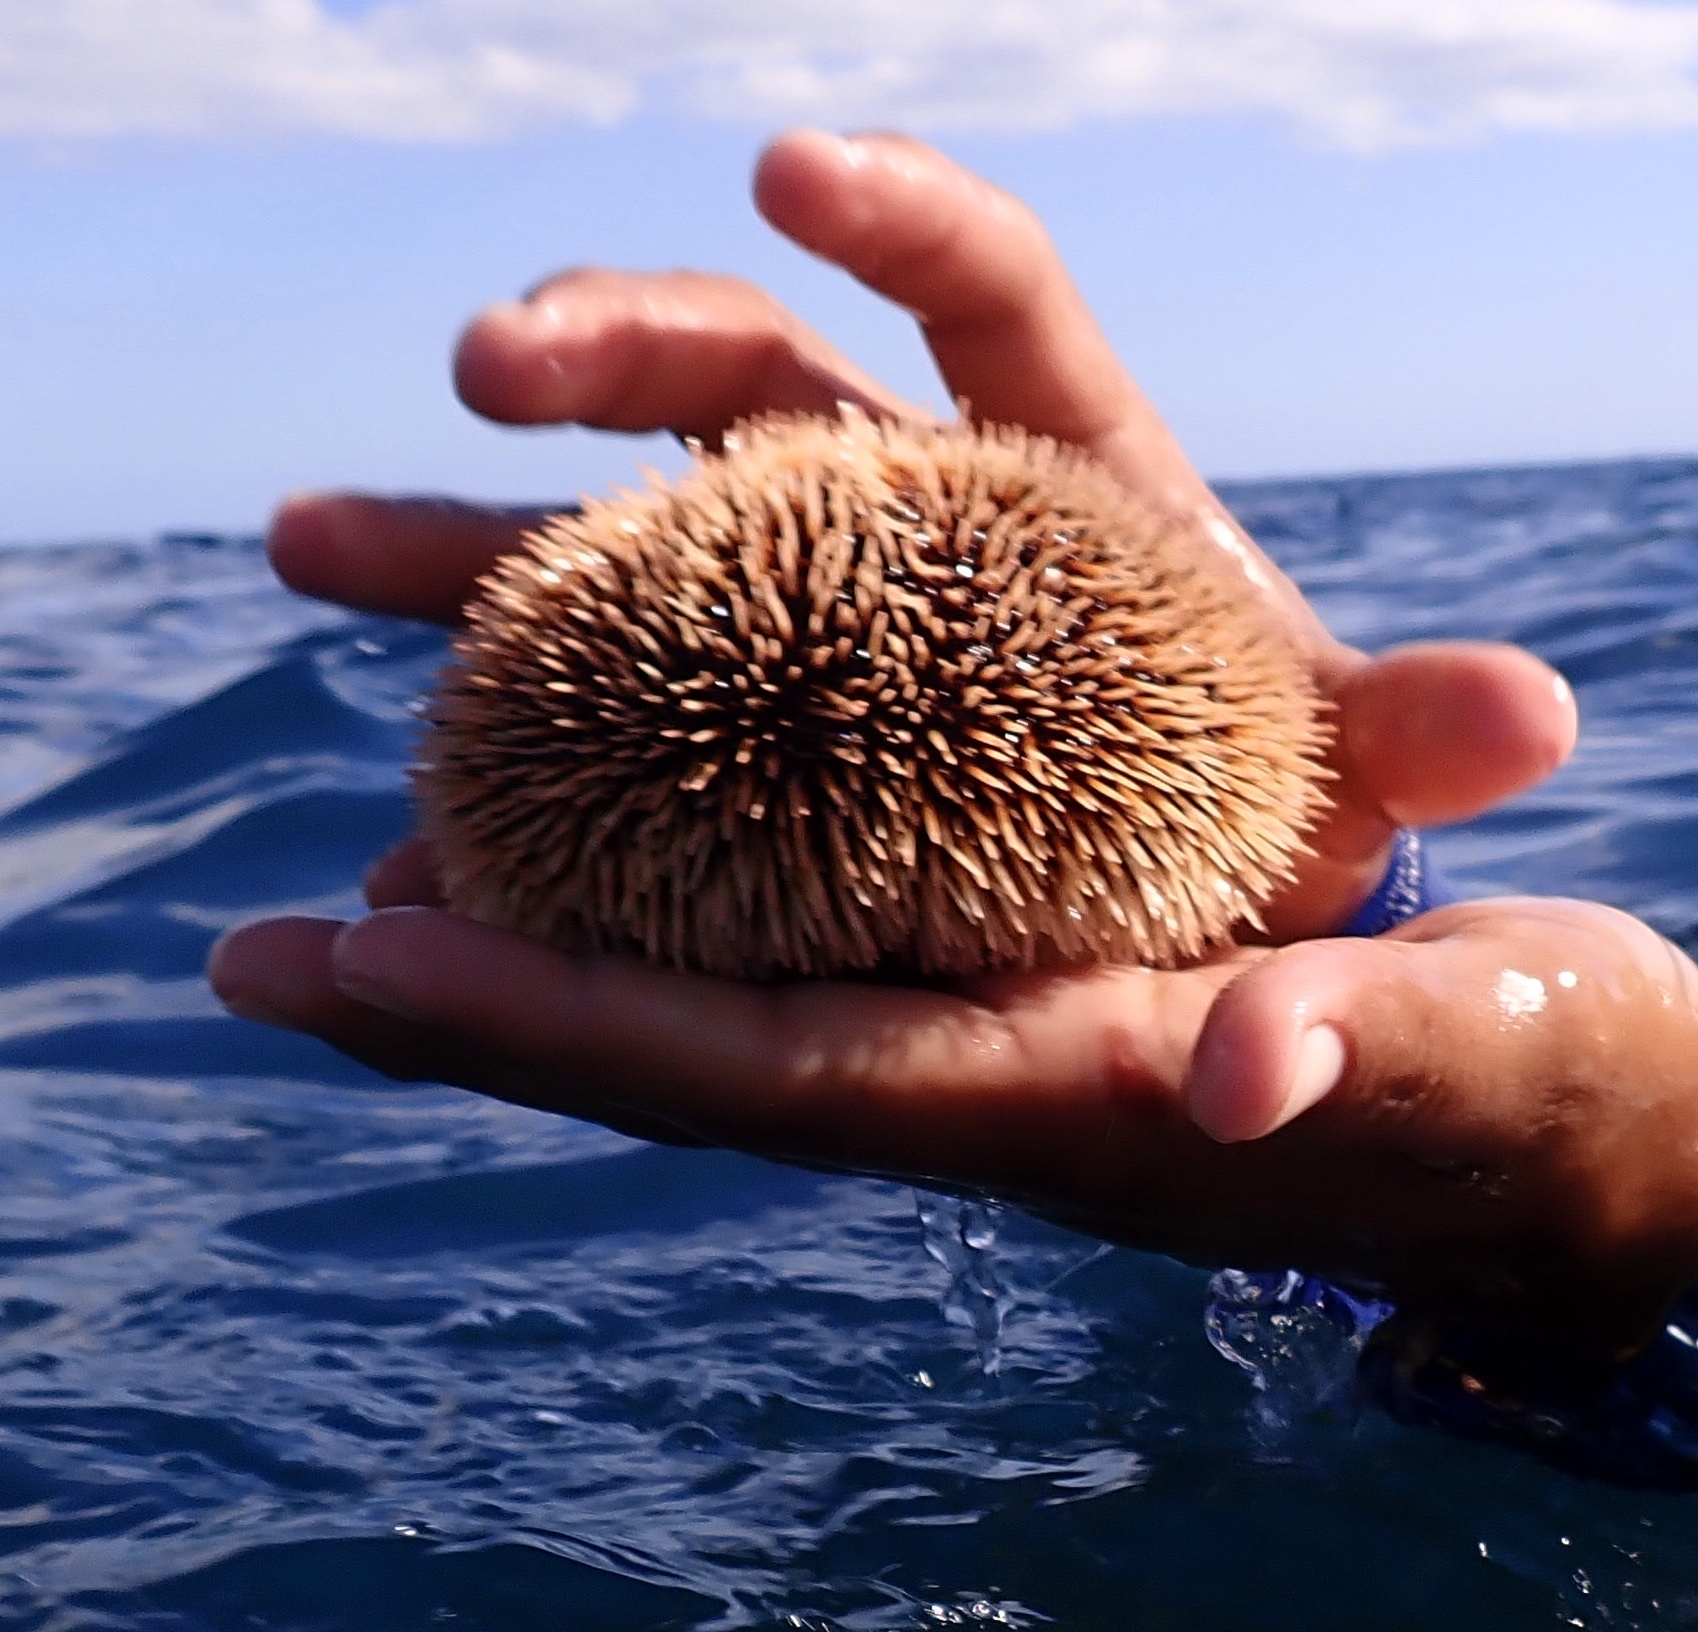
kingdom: Animalia
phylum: Echinodermata
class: Echinoidea
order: Camarodonta
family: Toxopneustidae
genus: Tripneustes
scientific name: Tripneustes depressus
